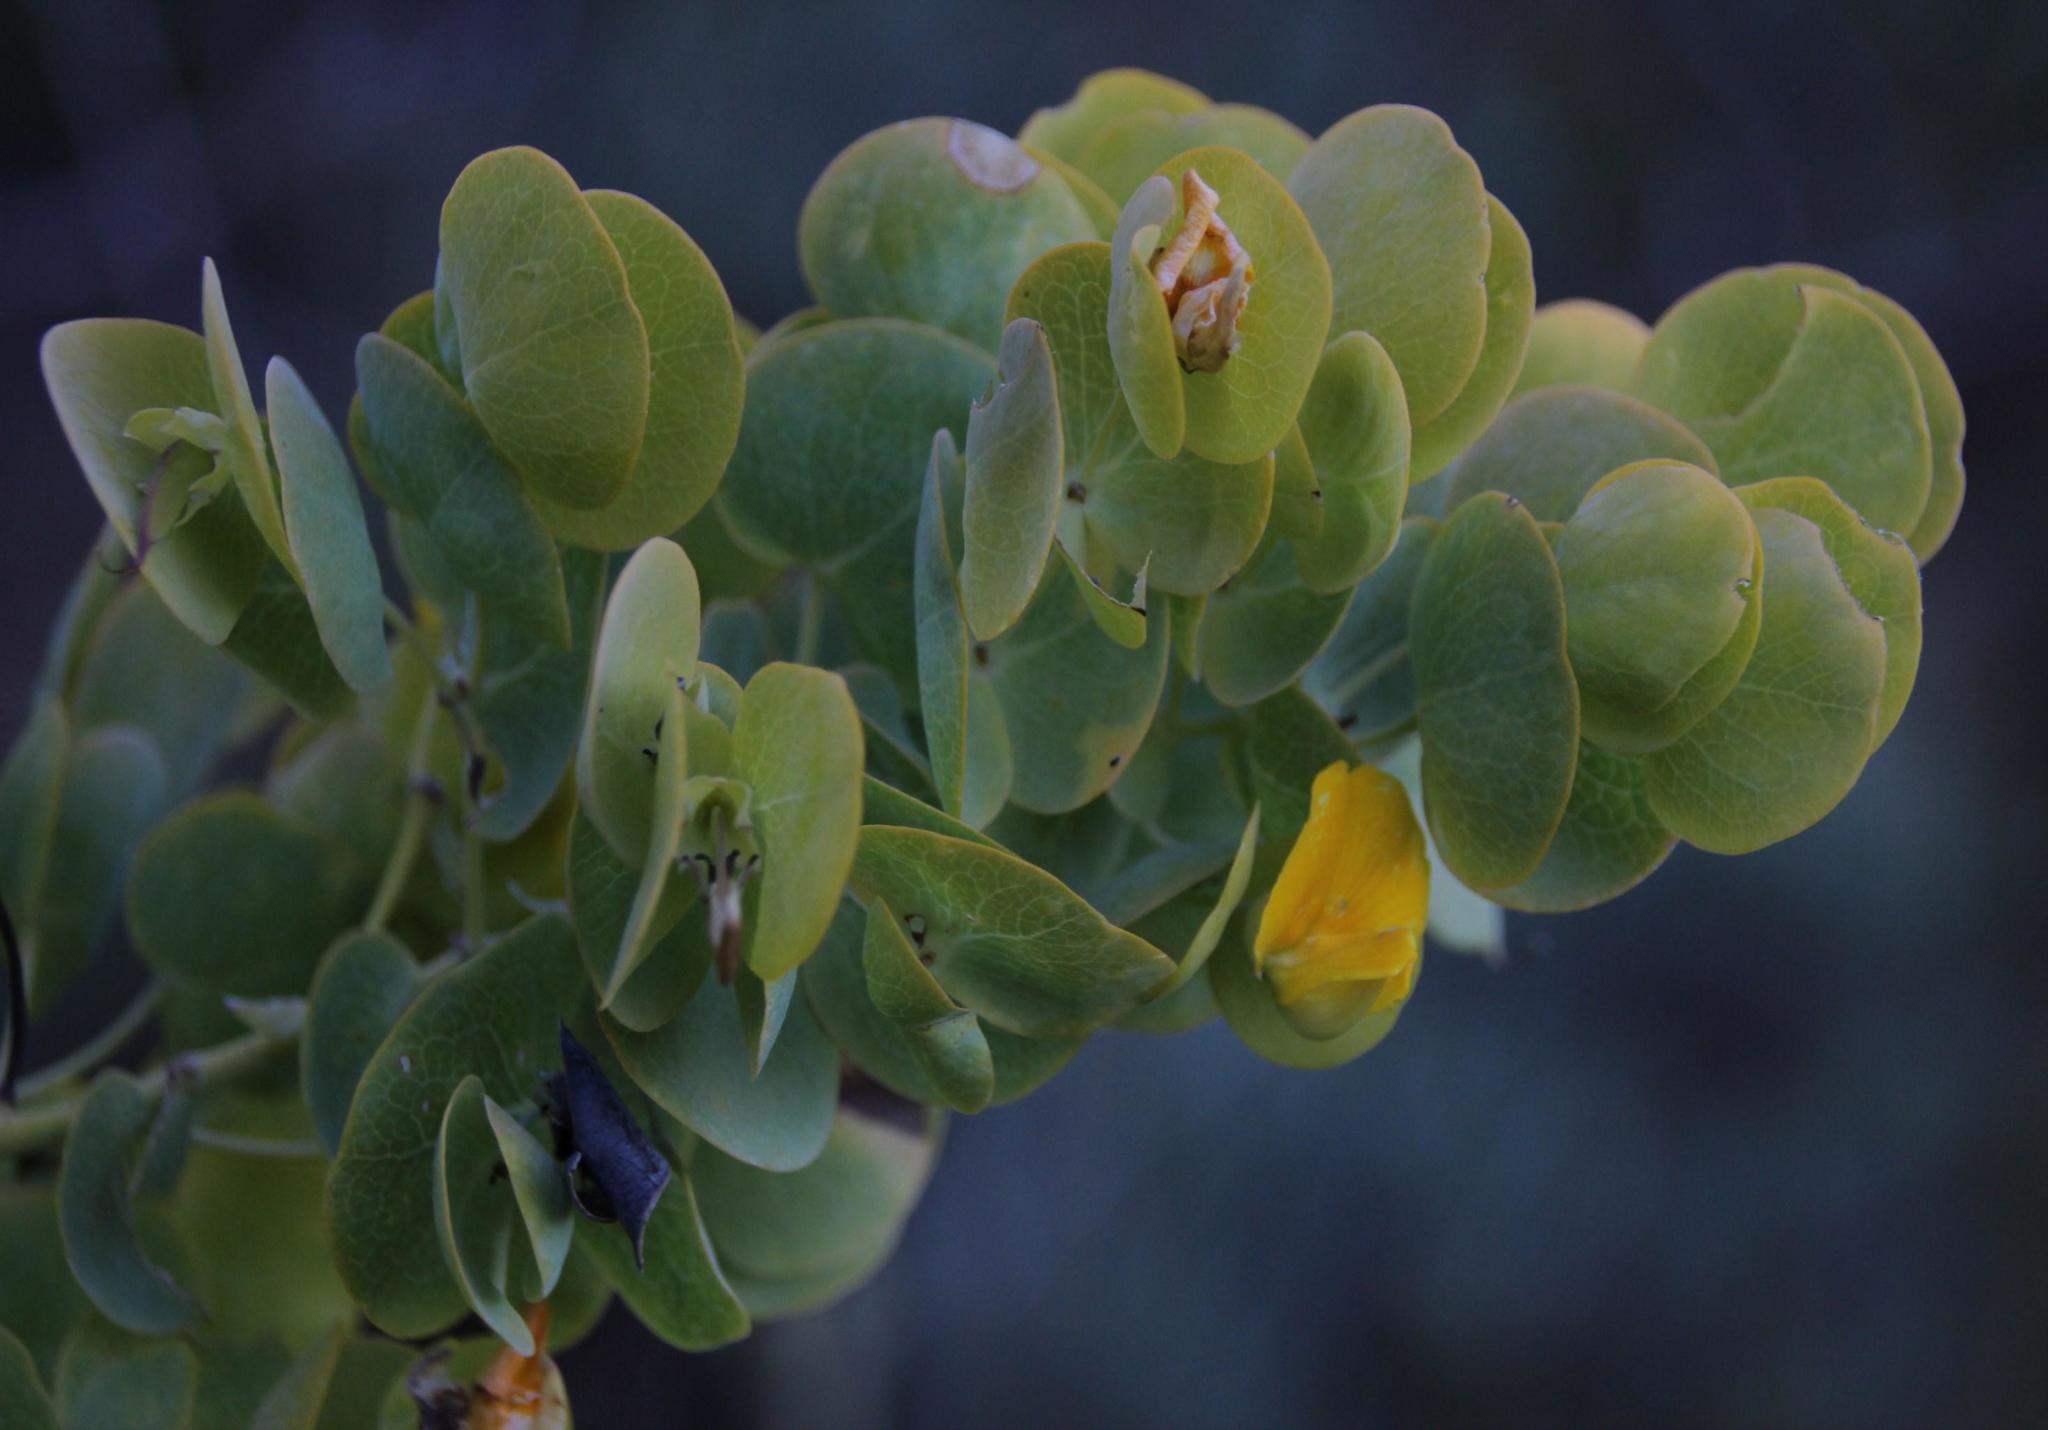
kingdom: Plantae
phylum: Tracheophyta
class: Magnoliopsida
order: Fabales
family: Fabaceae
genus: Rafnia
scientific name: Rafnia amplexicaulis
